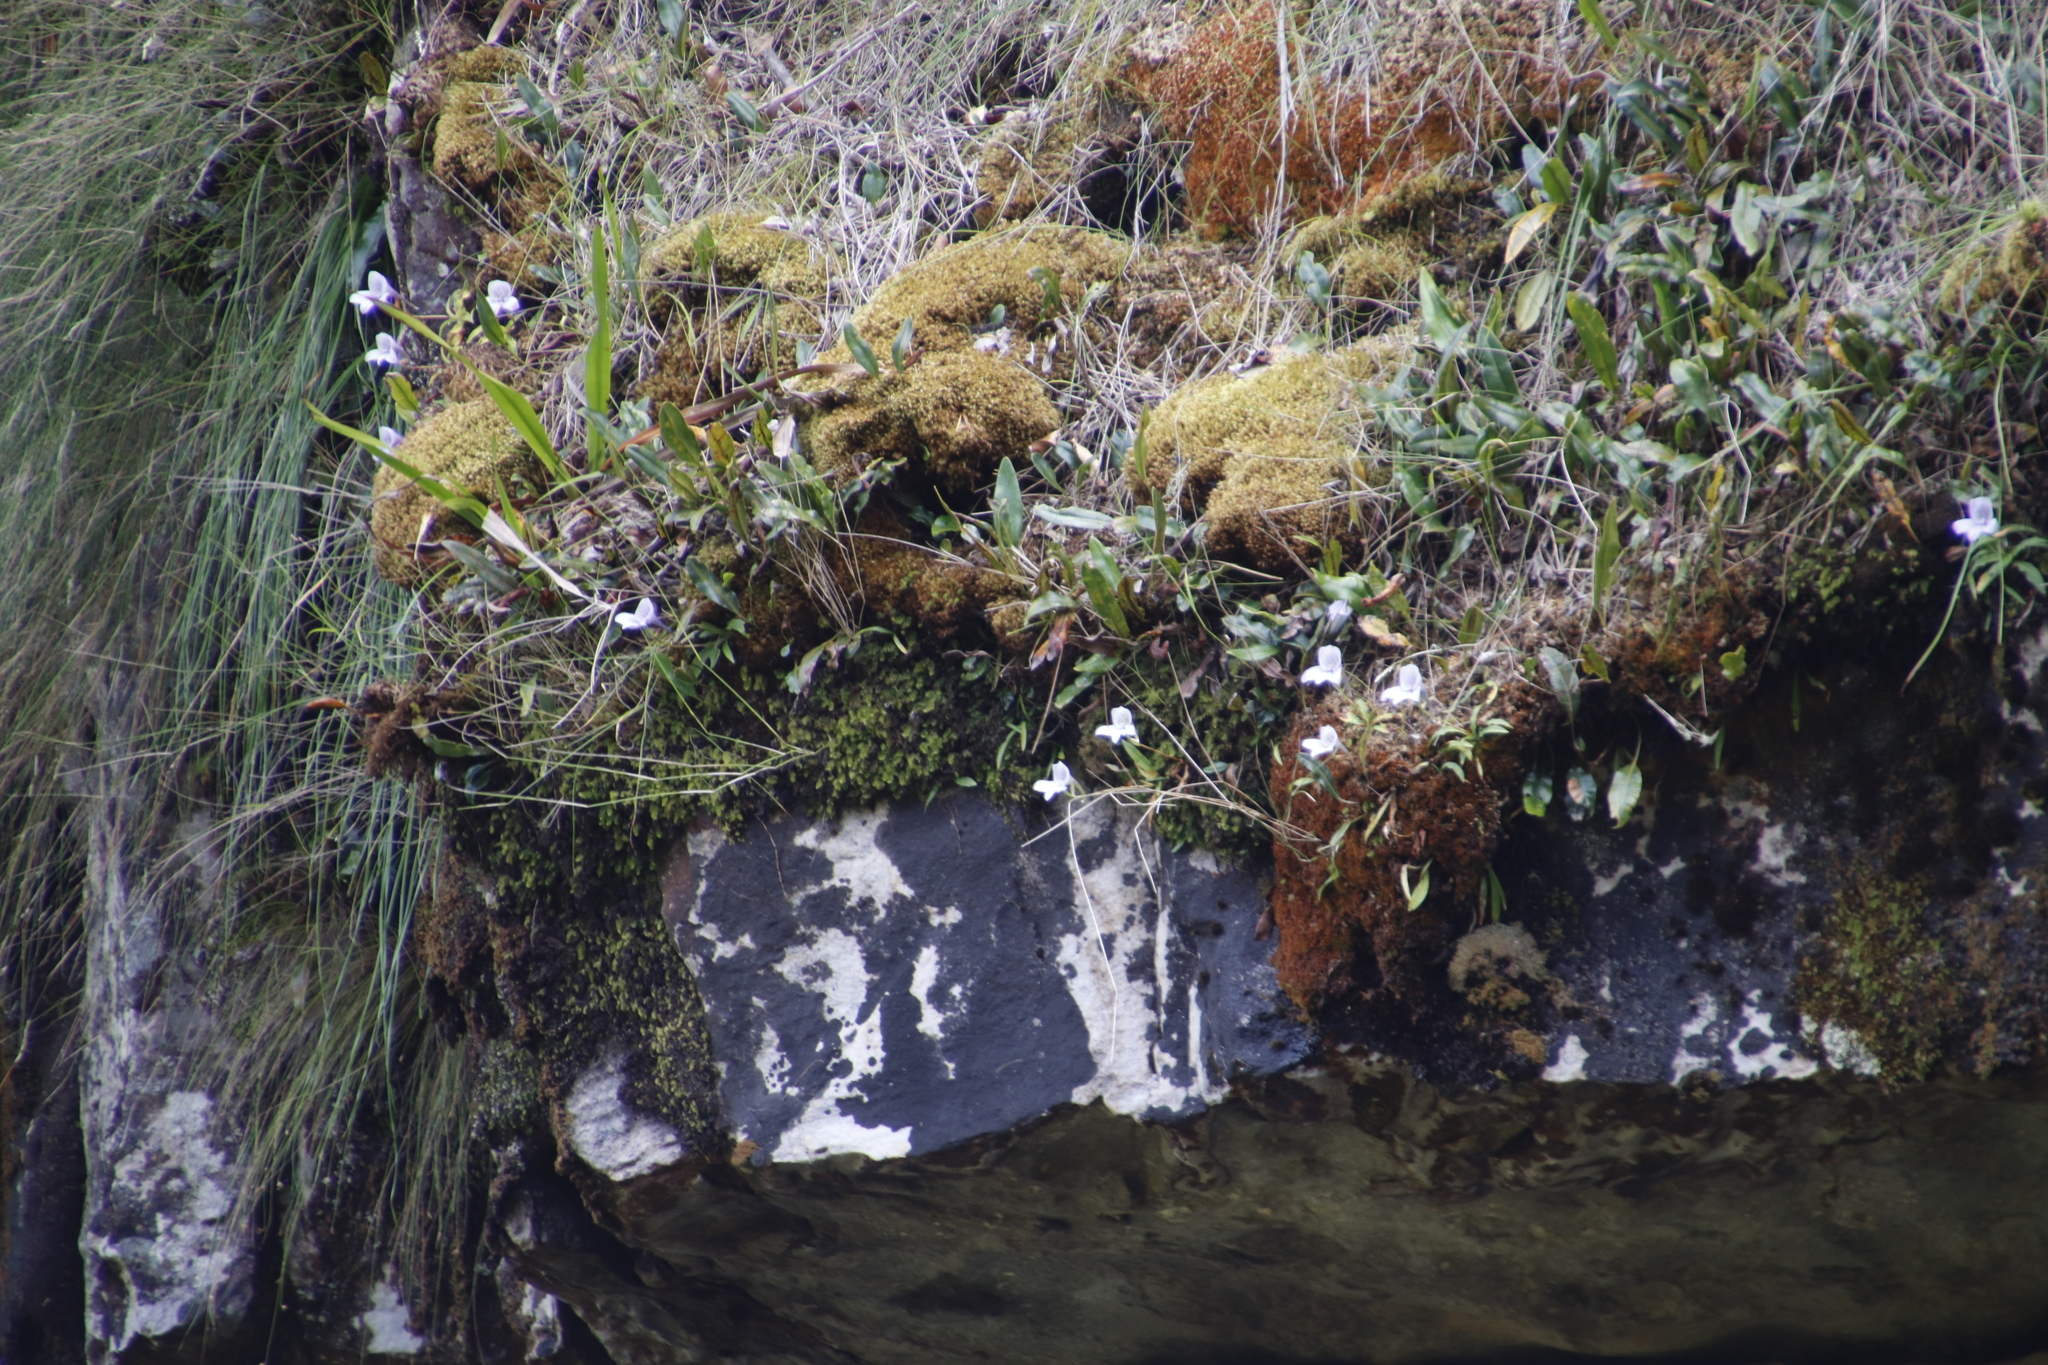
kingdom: Plantae
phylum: Tracheophyta
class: Liliopsida
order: Asparagales
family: Orchidaceae
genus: Disa
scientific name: Disa longicornu
